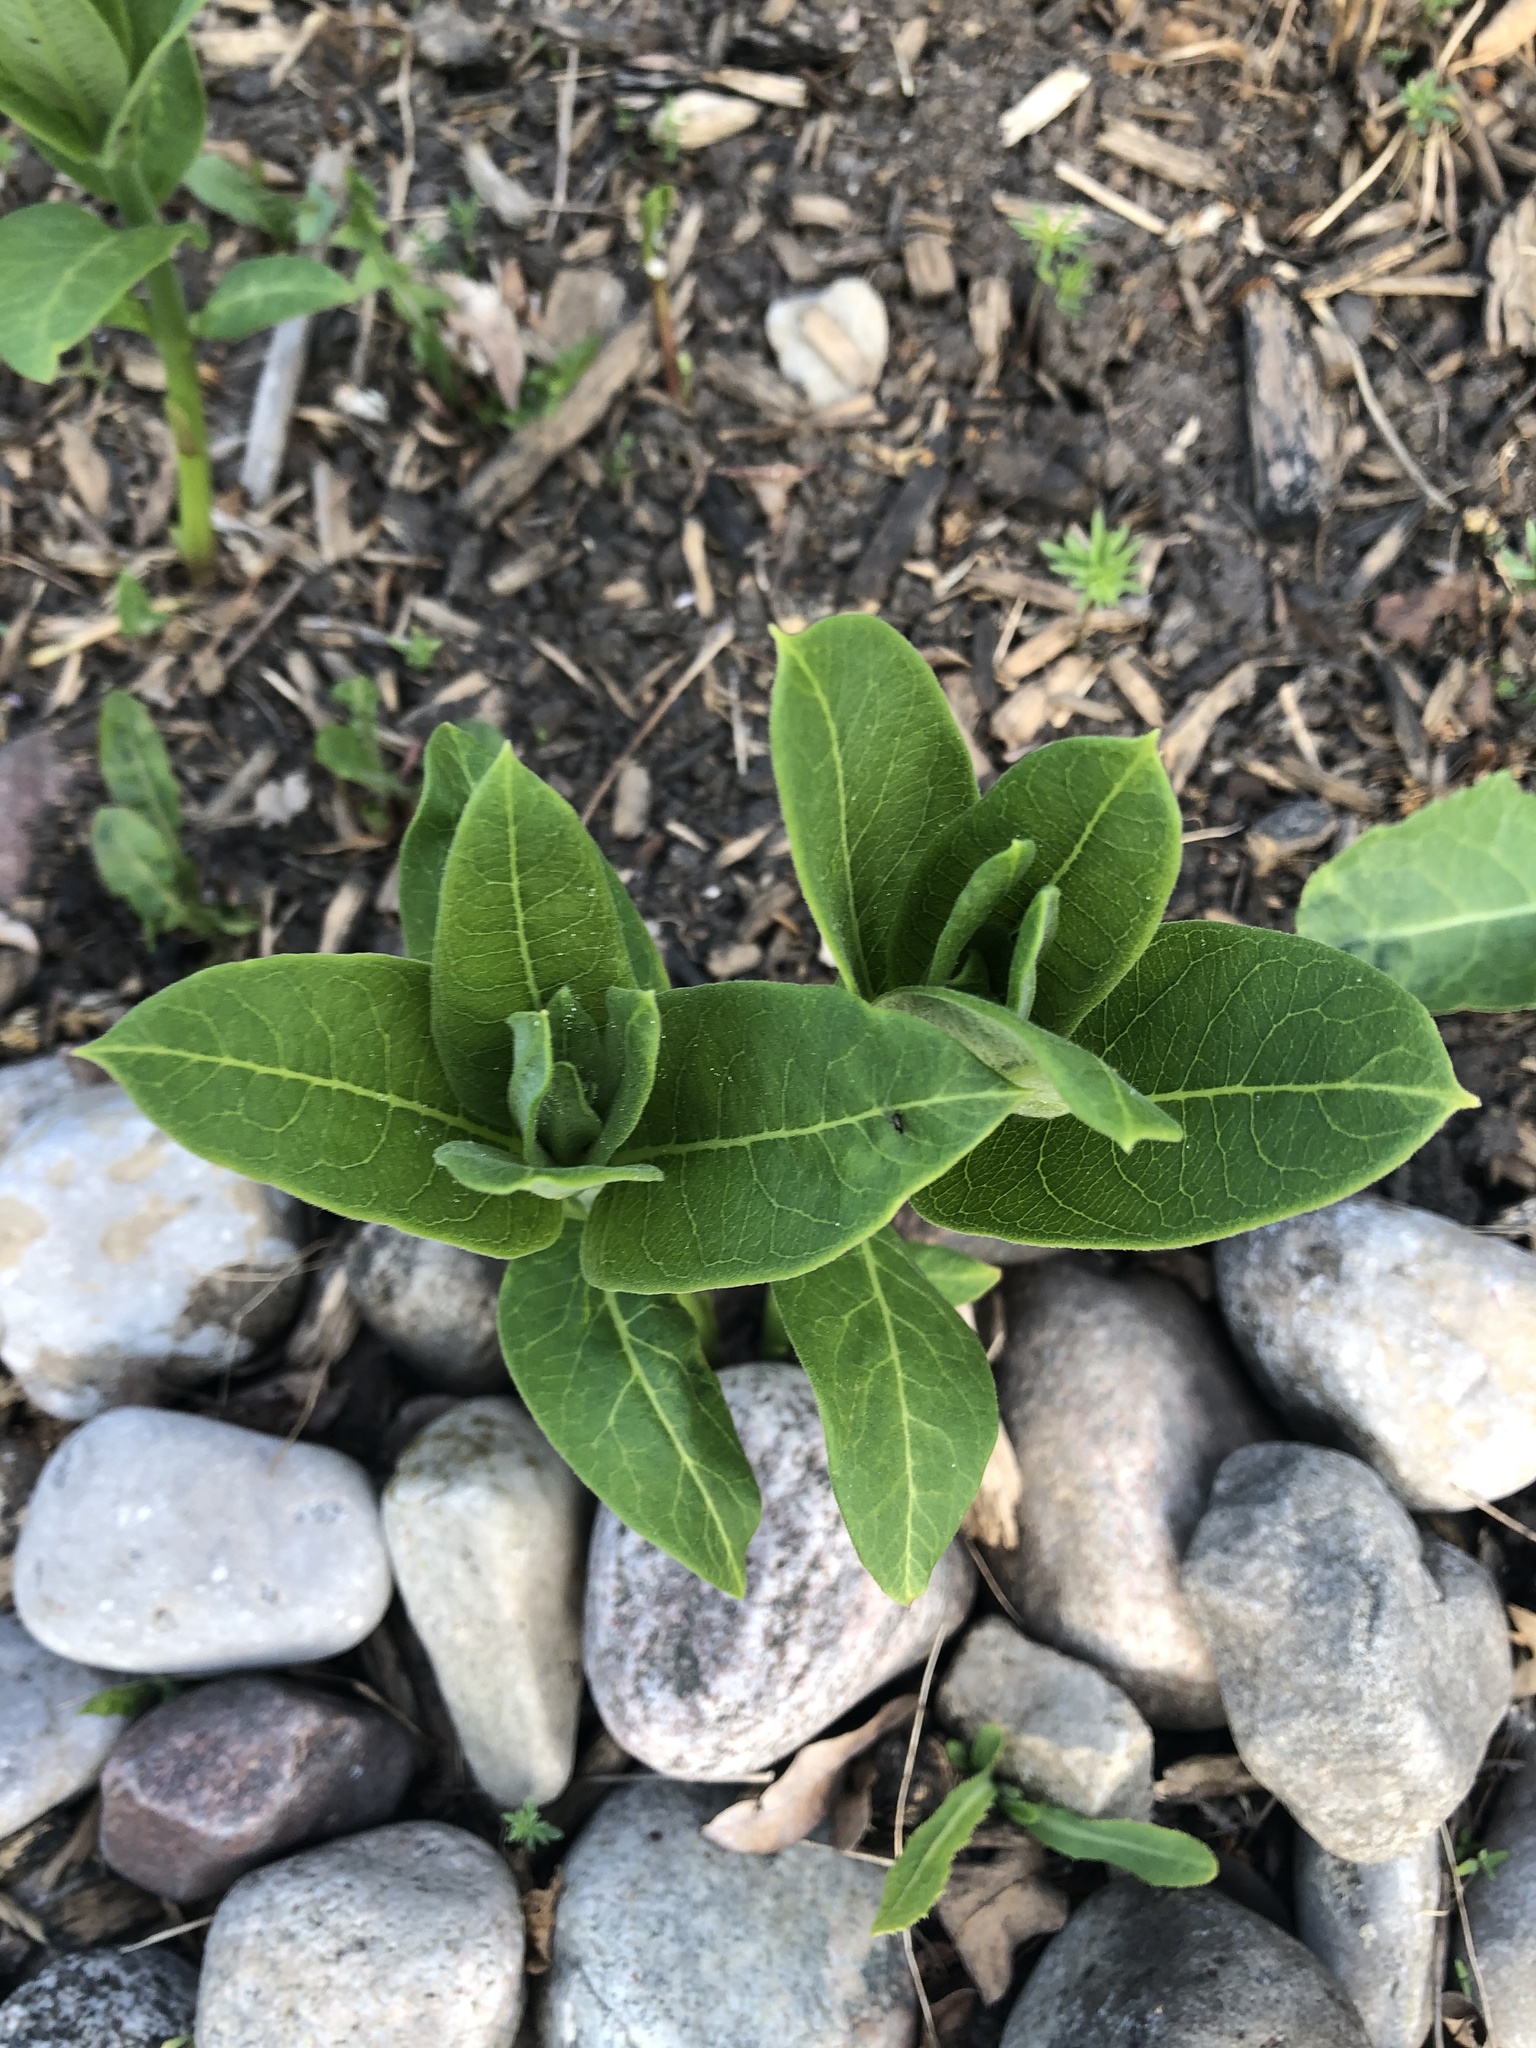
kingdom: Plantae
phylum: Tracheophyta
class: Magnoliopsida
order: Gentianales
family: Apocynaceae
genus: Asclepias
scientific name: Asclepias syriaca
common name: Common milkweed
